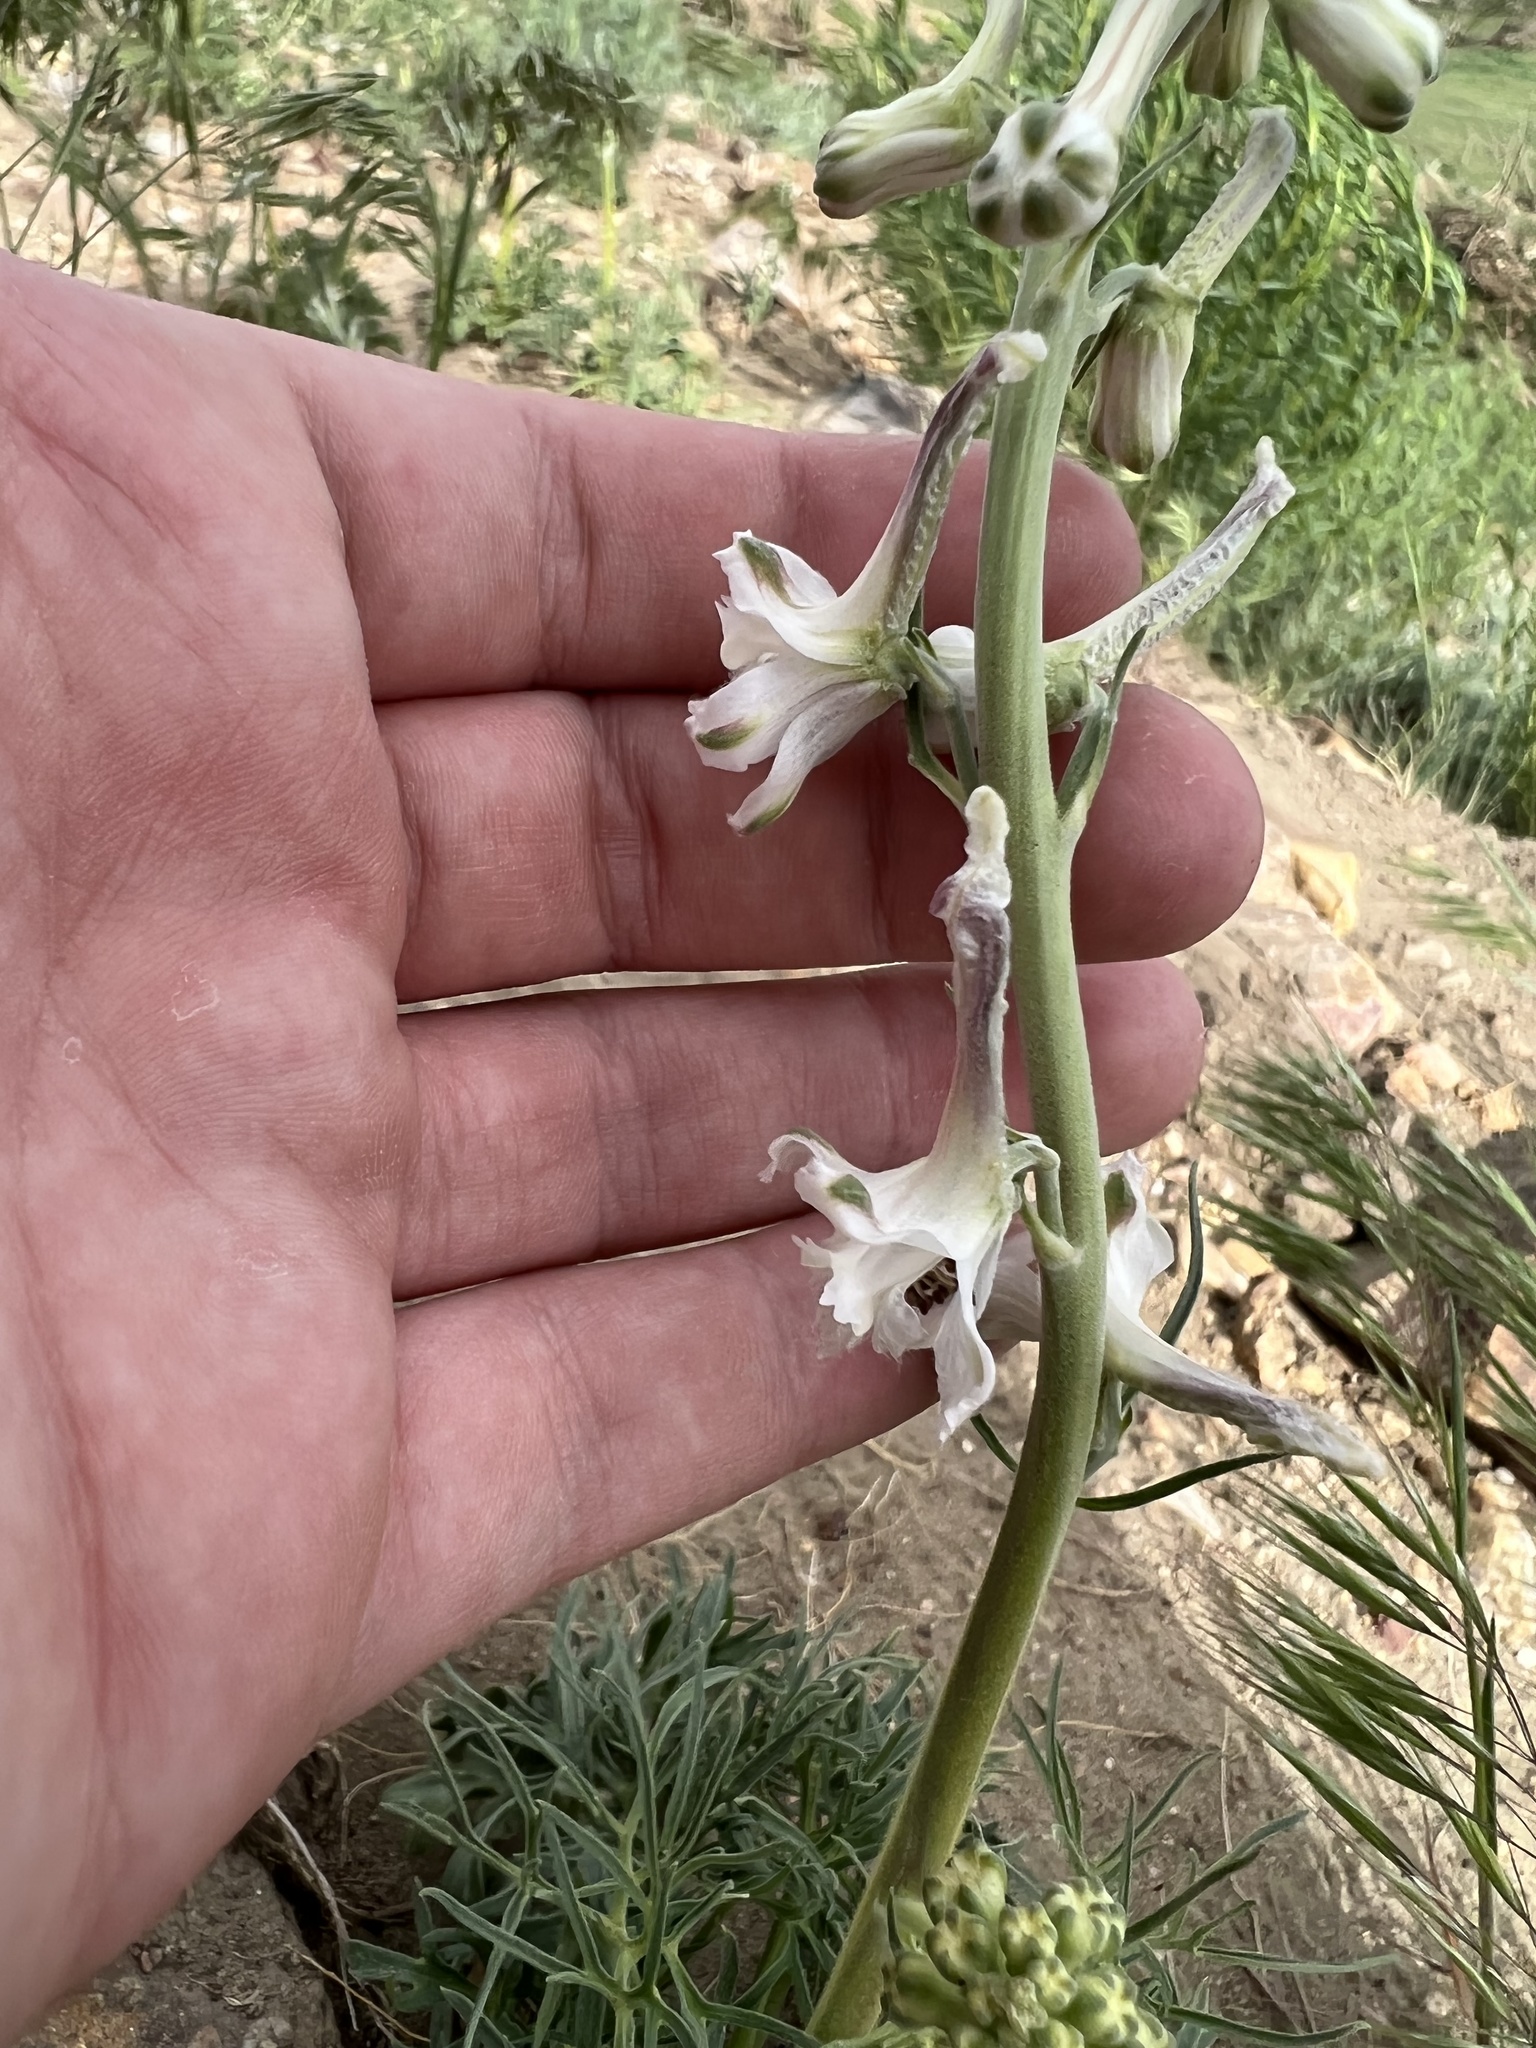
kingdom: Plantae
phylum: Tracheophyta
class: Magnoliopsida
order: Ranunculales
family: Ranunculaceae
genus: Delphinium
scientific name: Delphinium carolinianum
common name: Carolina larkspur
